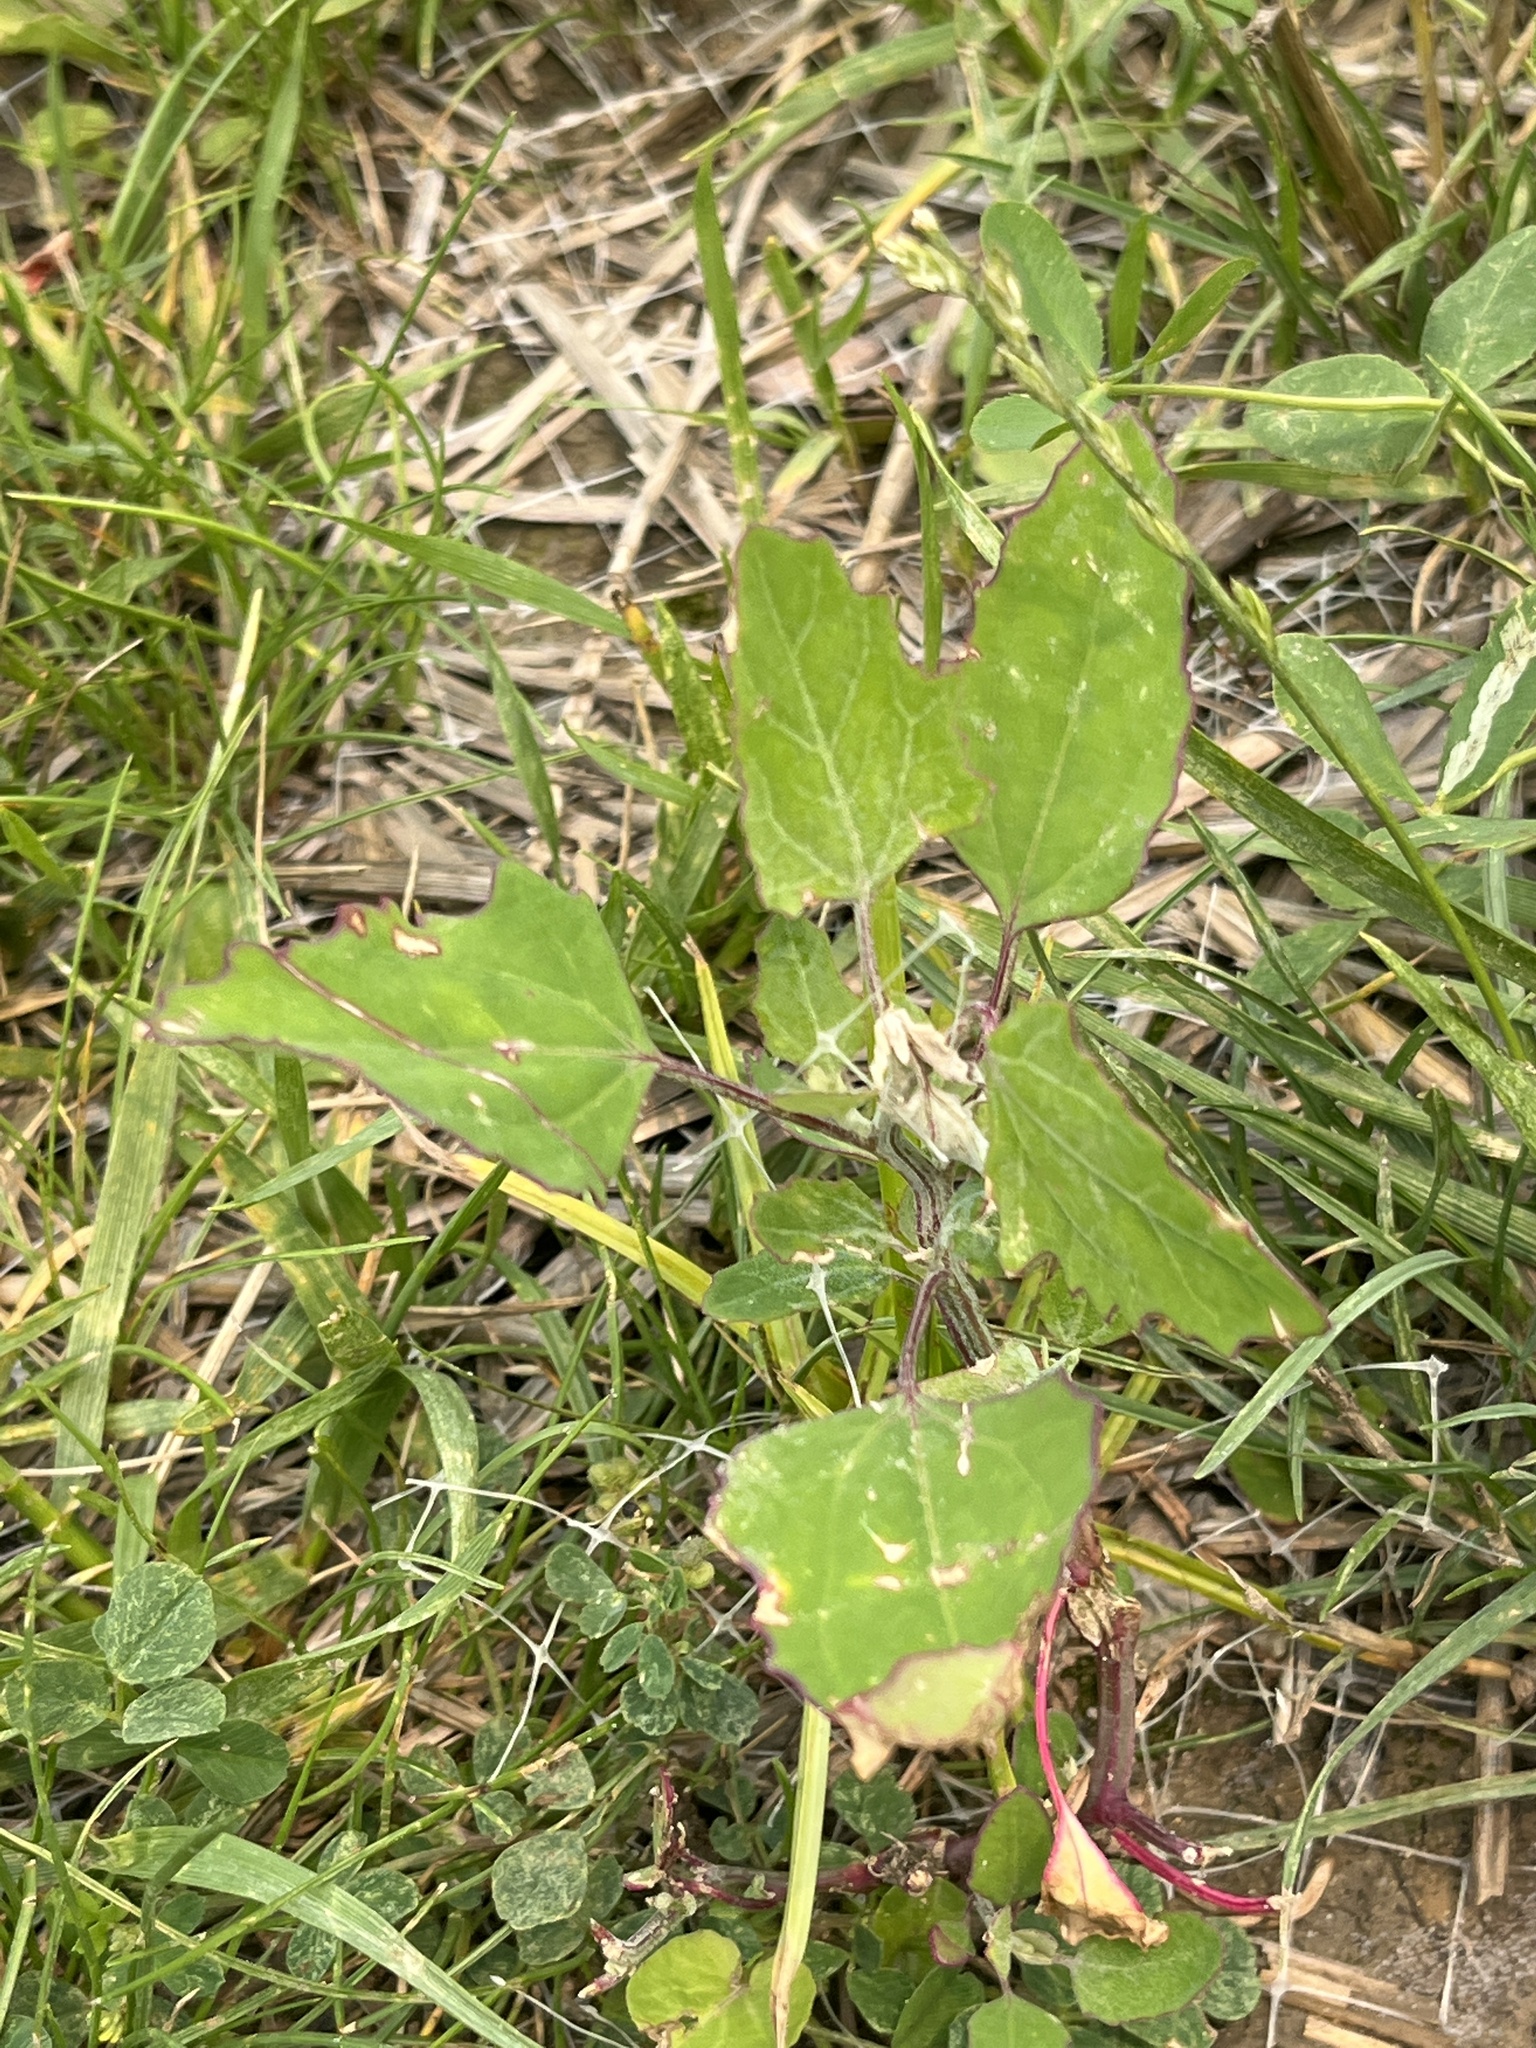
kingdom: Plantae
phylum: Tracheophyta
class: Magnoliopsida
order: Caryophyllales
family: Amaranthaceae
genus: Chenopodium
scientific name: Chenopodium album
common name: Fat-hen
